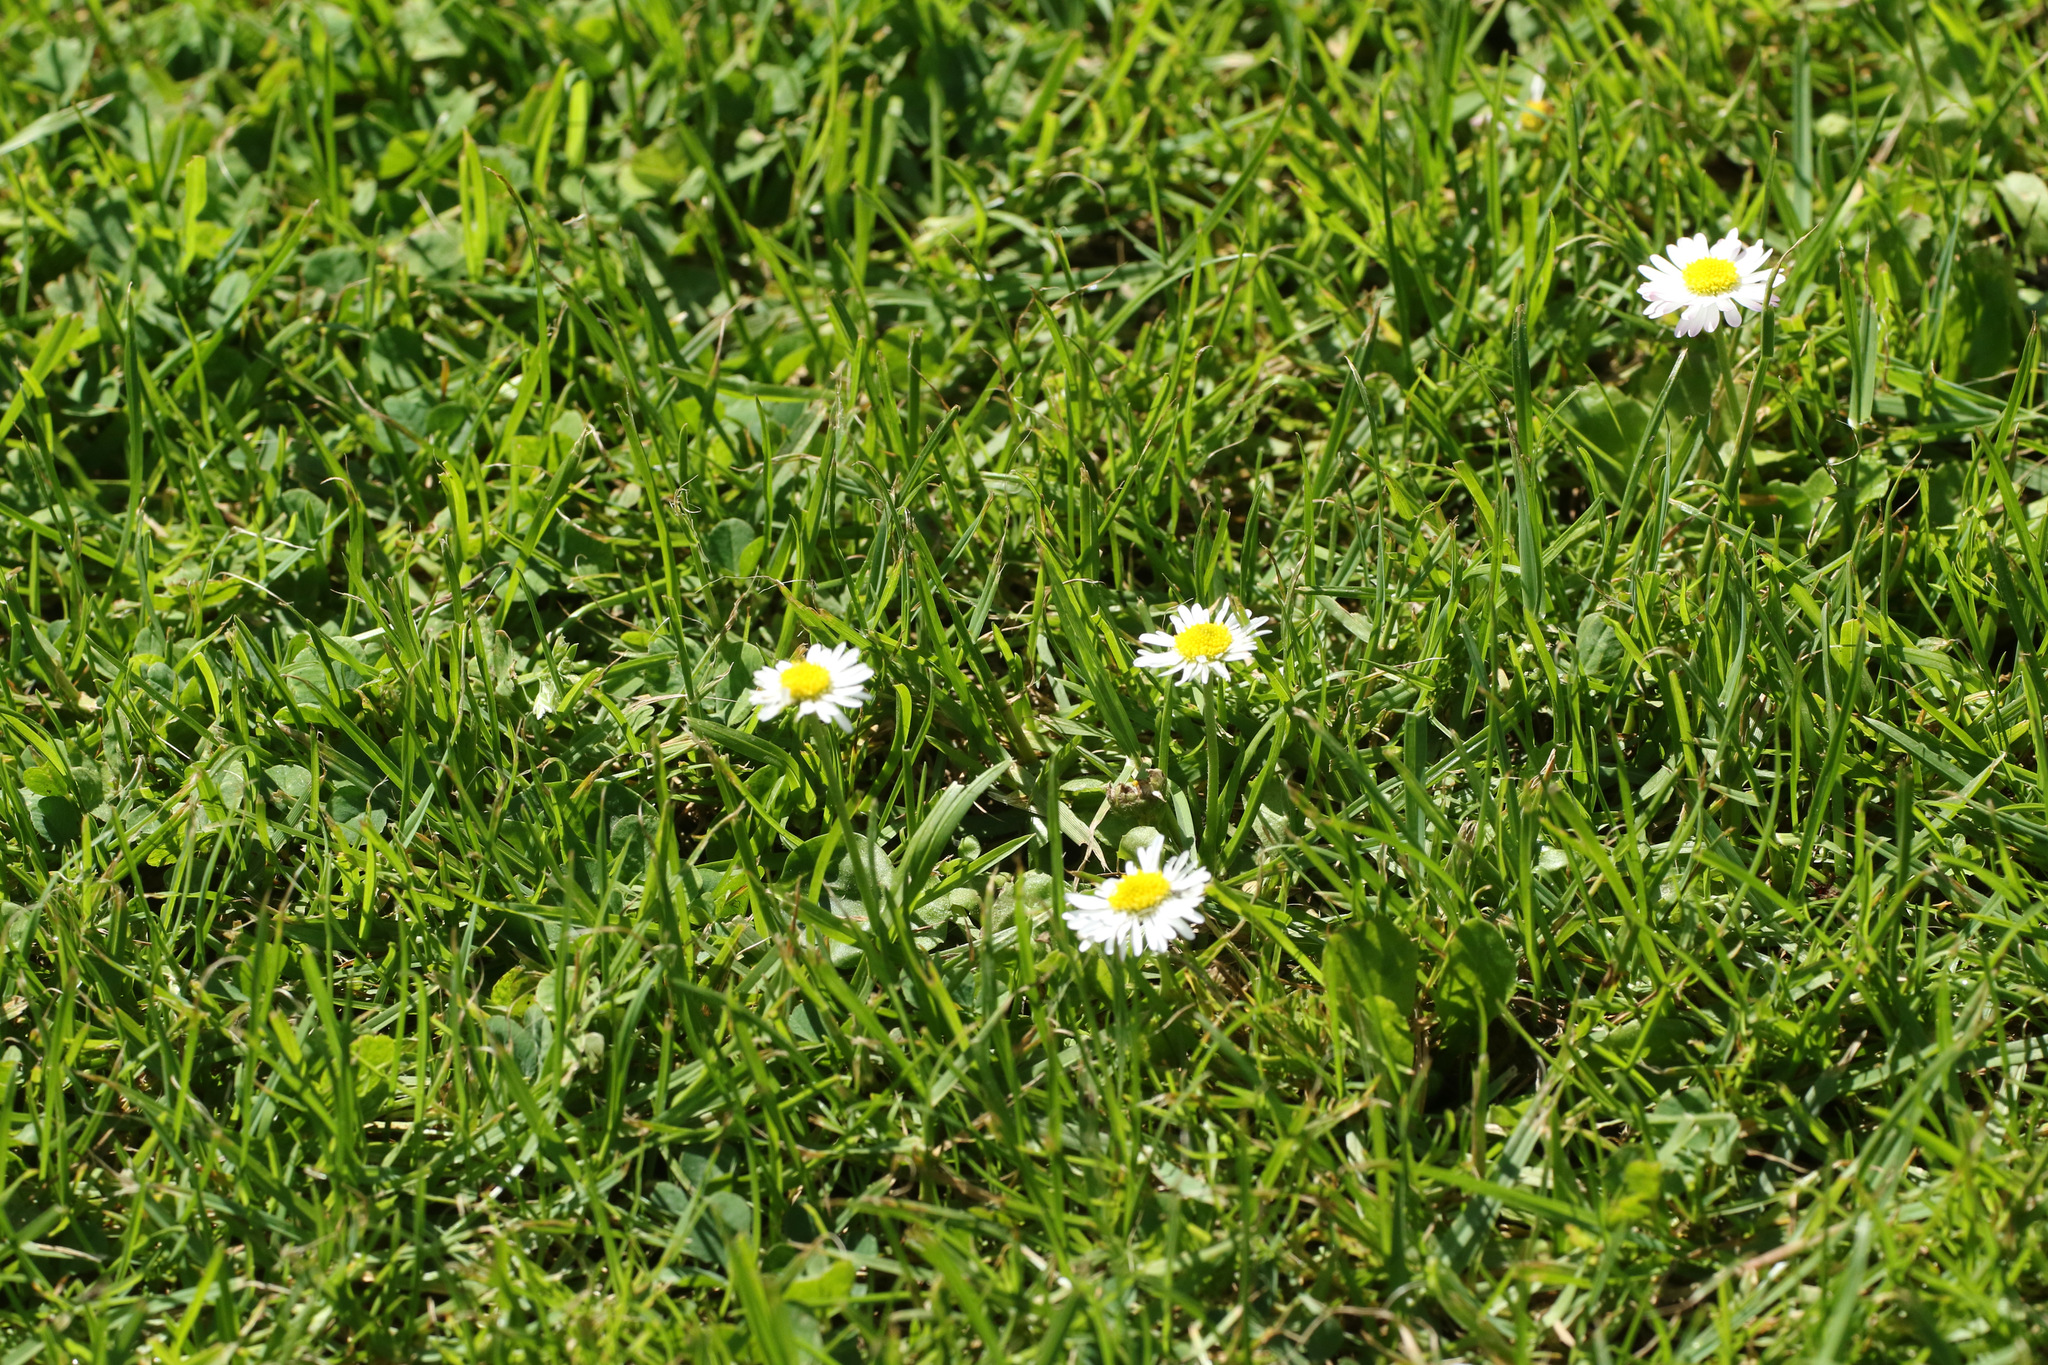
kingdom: Plantae
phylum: Tracheophyta
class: Magnoliopsida
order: Asterales
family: Asteraceae
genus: Bellis
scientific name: Bellis perennis
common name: Lawndaisy
